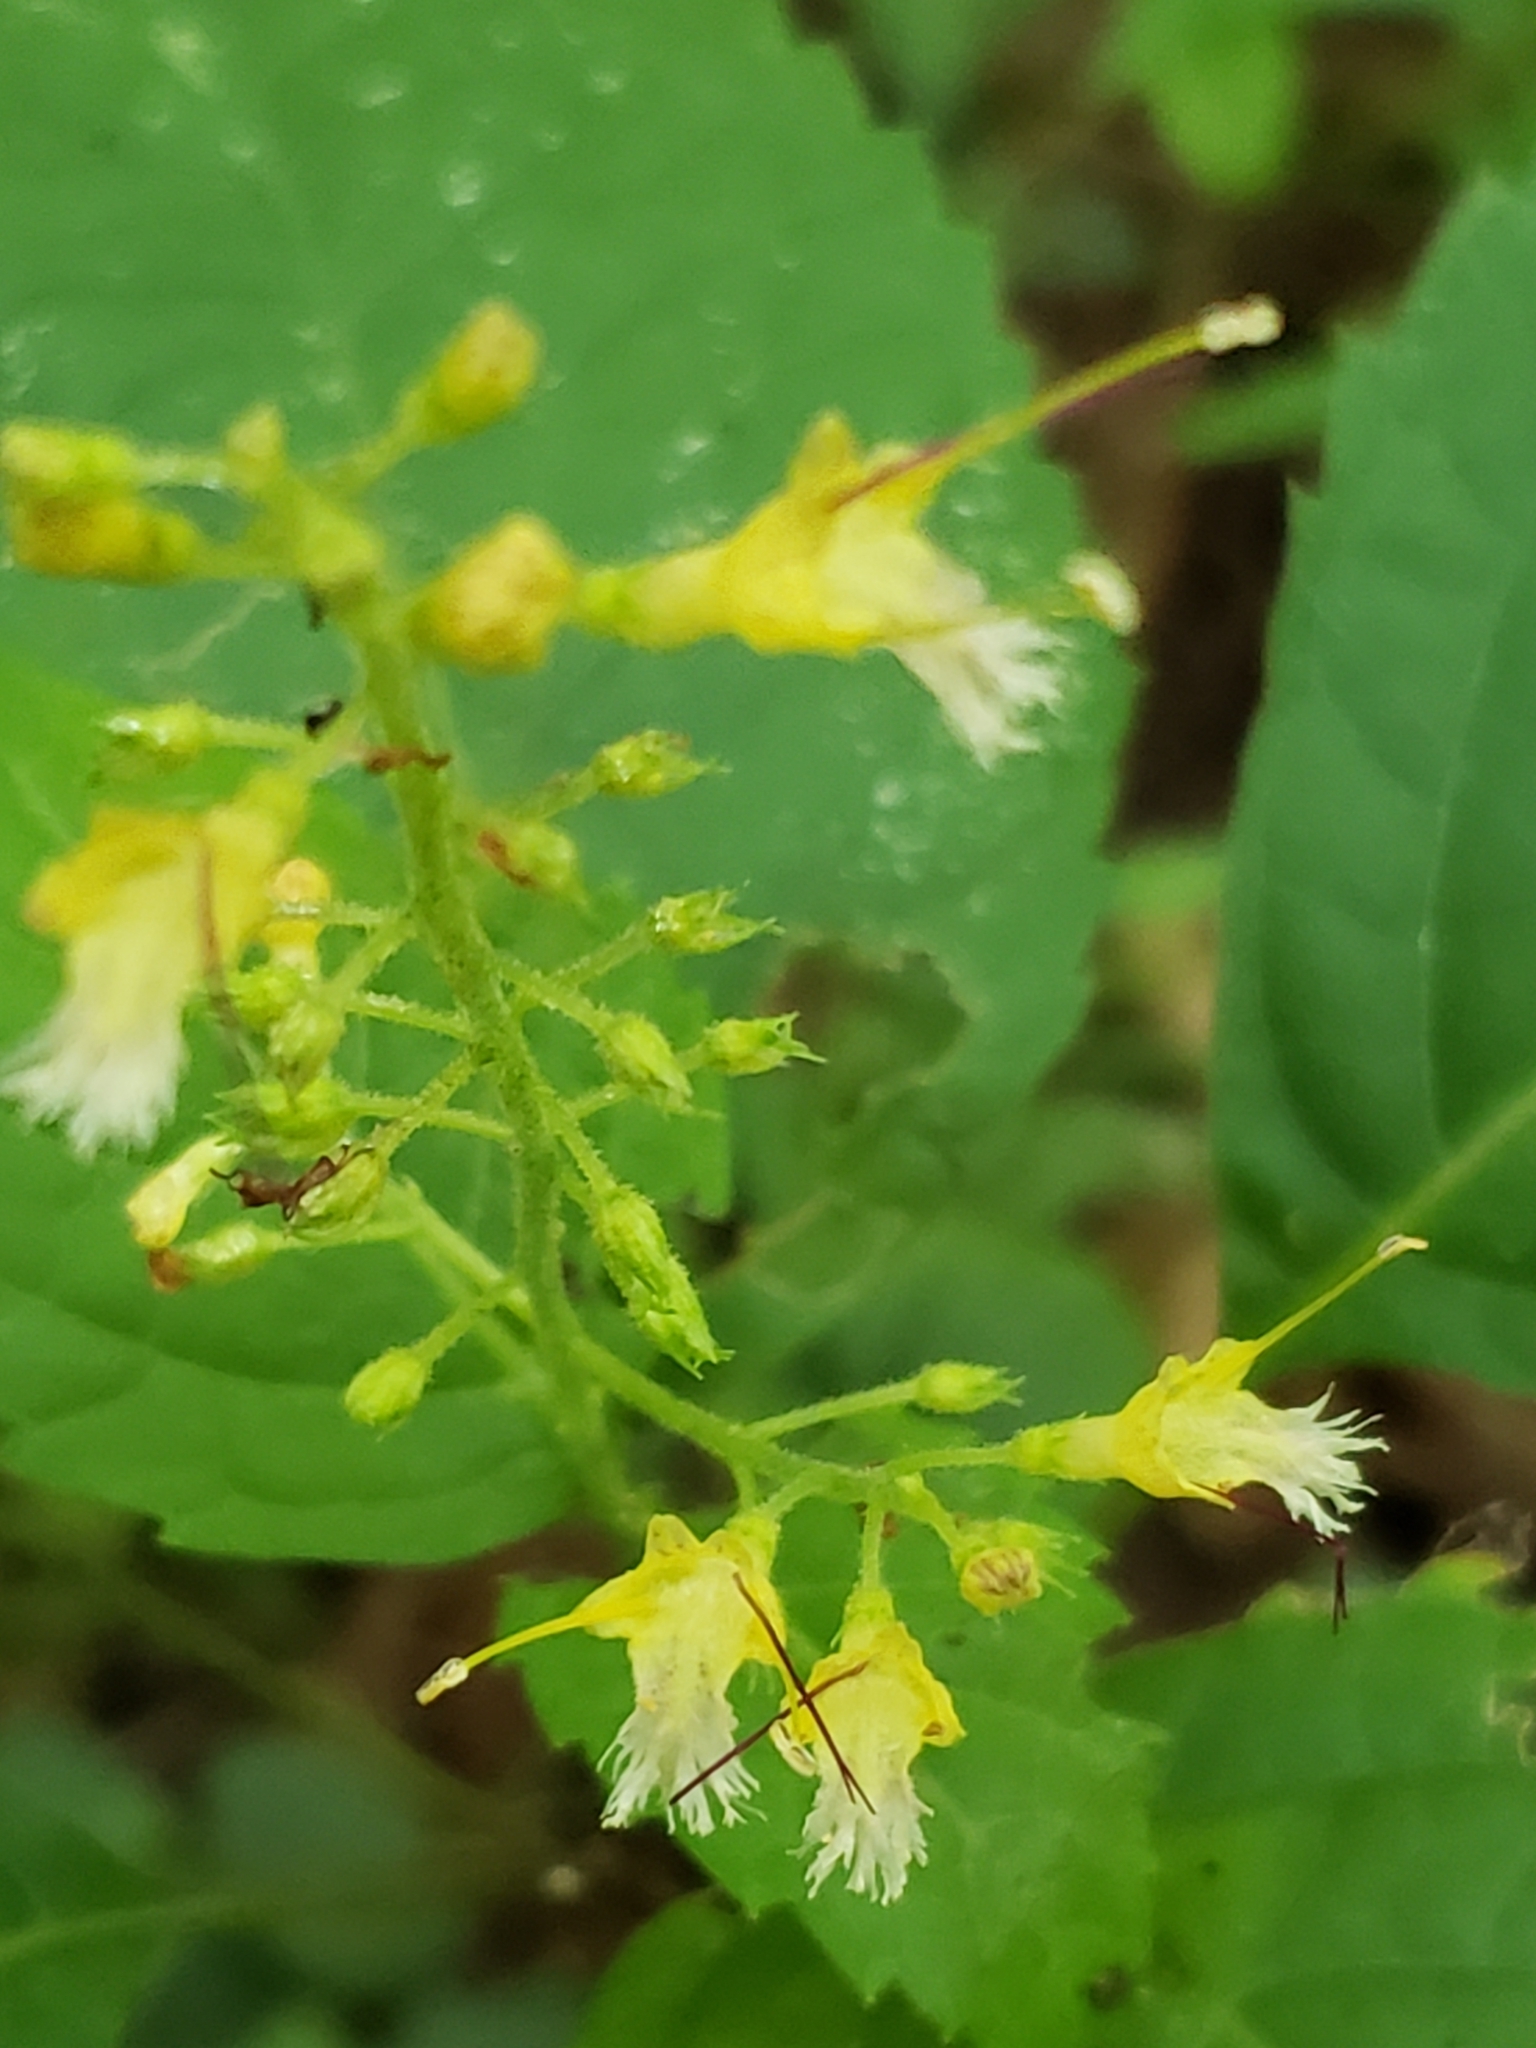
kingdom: Plantae
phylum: Tracheophyta
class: Magnoliopsida
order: Lamiales
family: Lamiaceae
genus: Collinsonia
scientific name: Collinsonia canadensis
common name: Northern horsebalm
